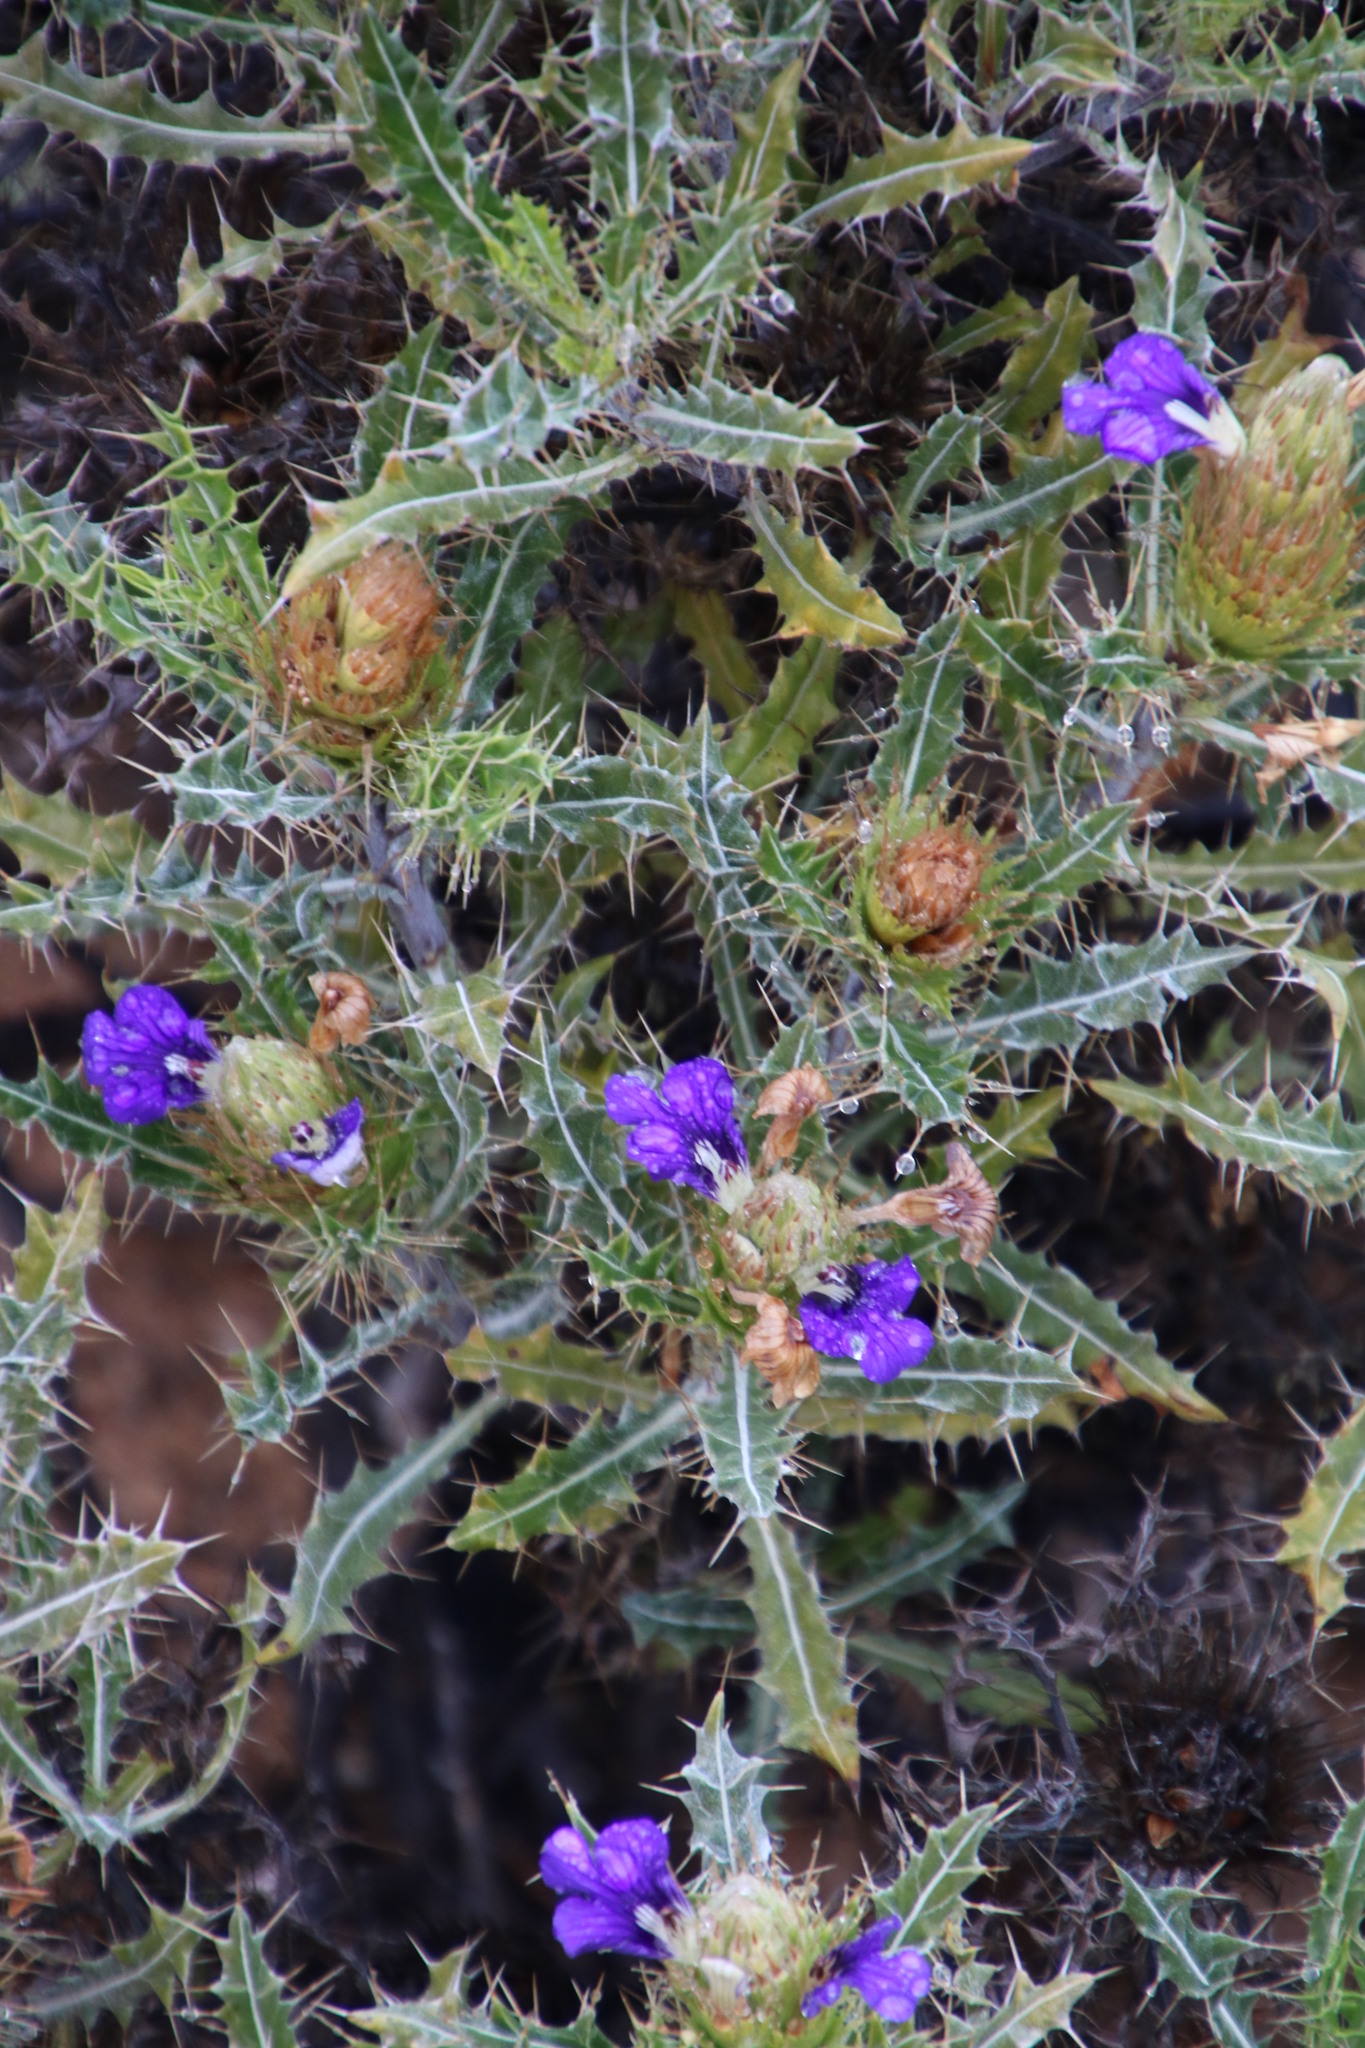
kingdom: Plantae
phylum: Tracheophyta
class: Magnoliopsida
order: Lamiales
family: Acanthaceae
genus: Acanthopsis
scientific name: Acanthopsis horrida
